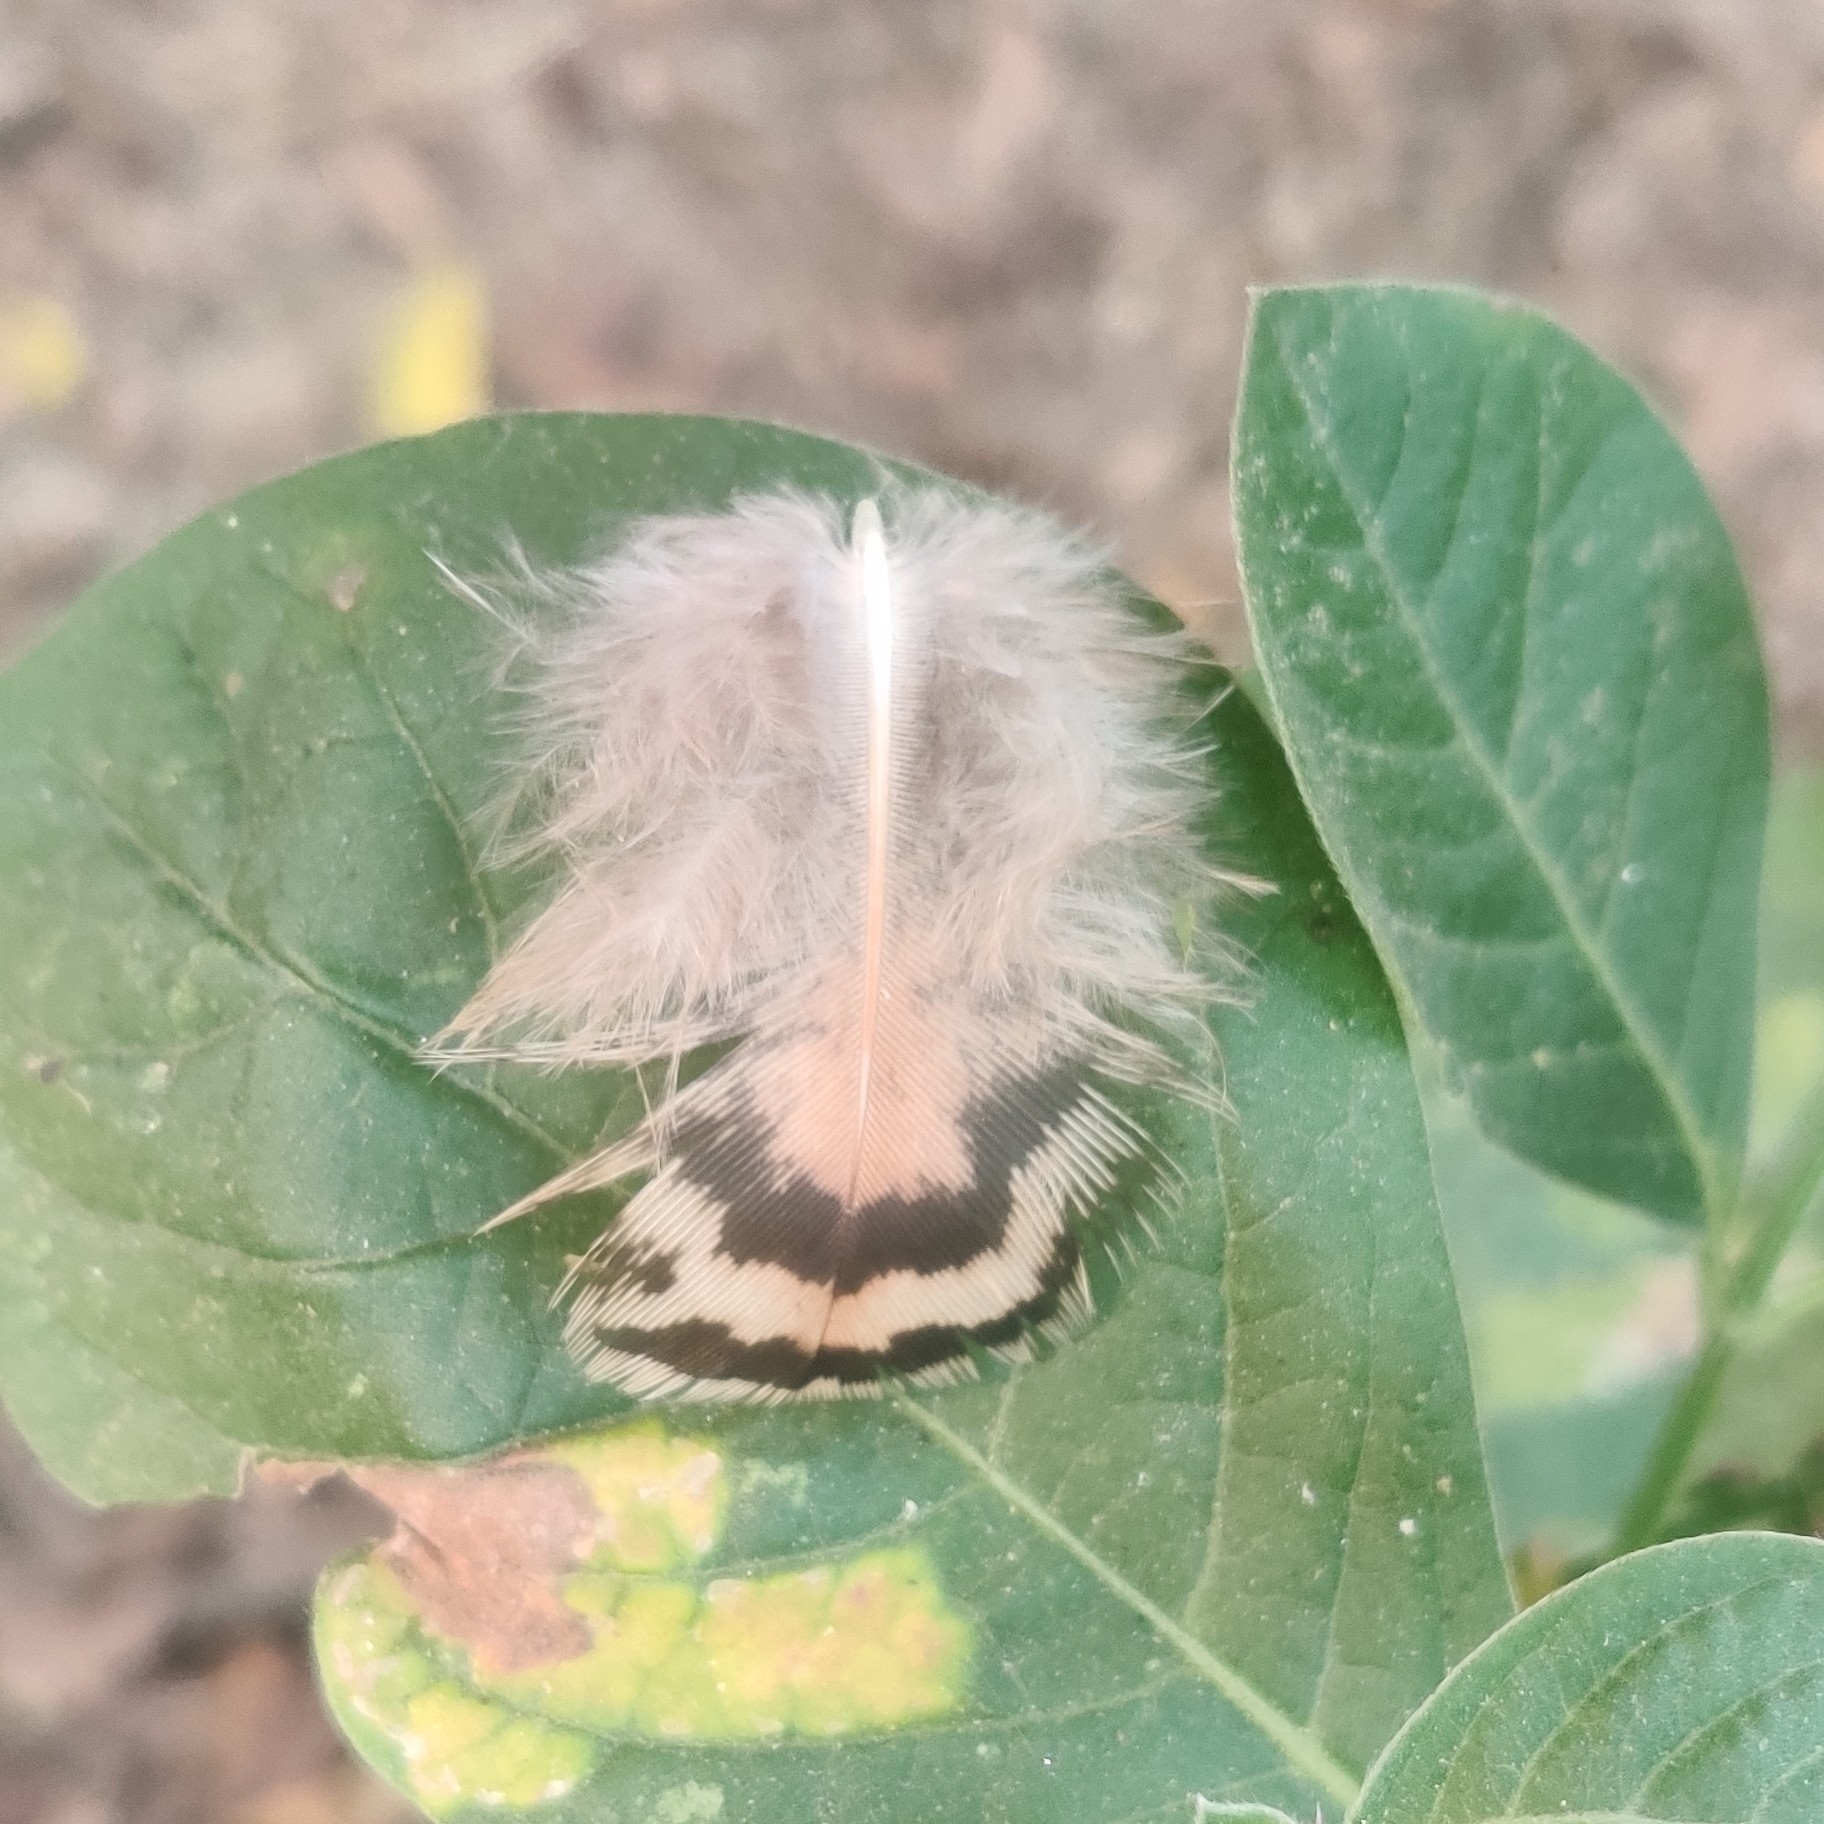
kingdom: Animalia
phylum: Chordata
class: Aves
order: Galliformes
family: Phasianidae
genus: Pavo
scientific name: Pavo cristatus
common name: Indian peafowl
